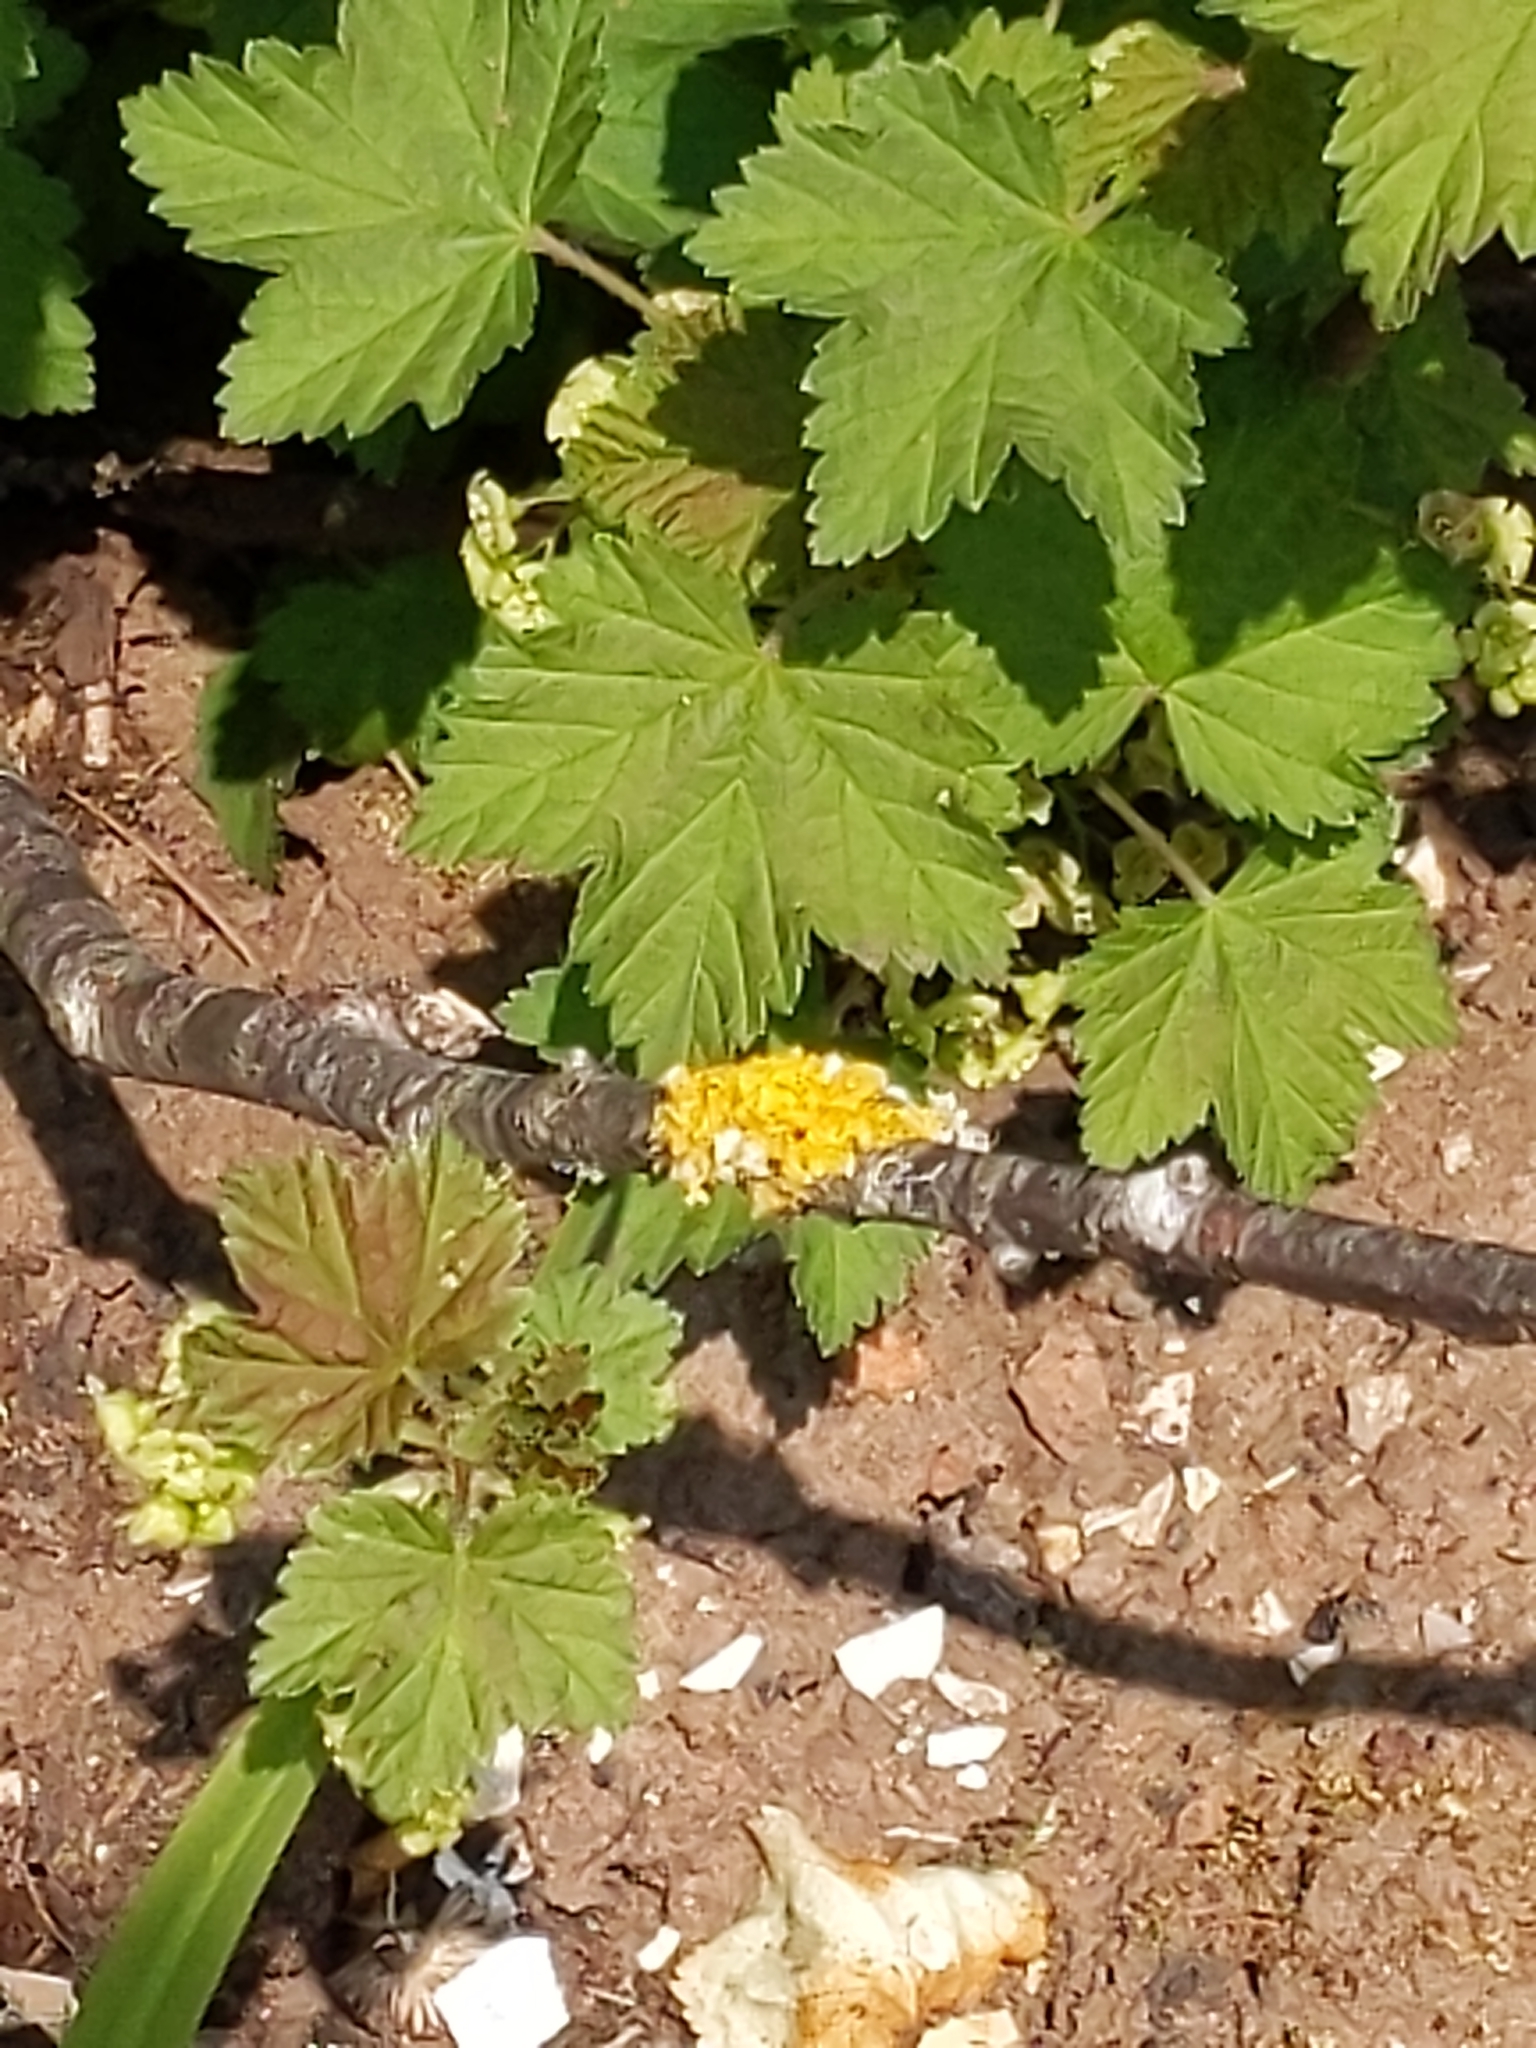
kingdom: Fungi
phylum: Ascomycota
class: Lecanoromycetes
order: Teloschistales
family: Teloschistaceae
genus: Xanthoria
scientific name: Xanthoria parietina
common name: Common orange lichen
